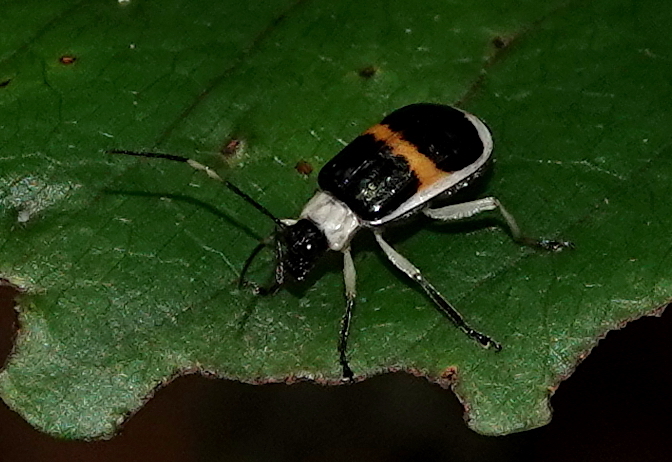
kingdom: Animalia
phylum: Arthropoda
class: Insecta
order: Coleoptera
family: Chrysomelidae
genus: Paratriarius
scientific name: Paratriarius
